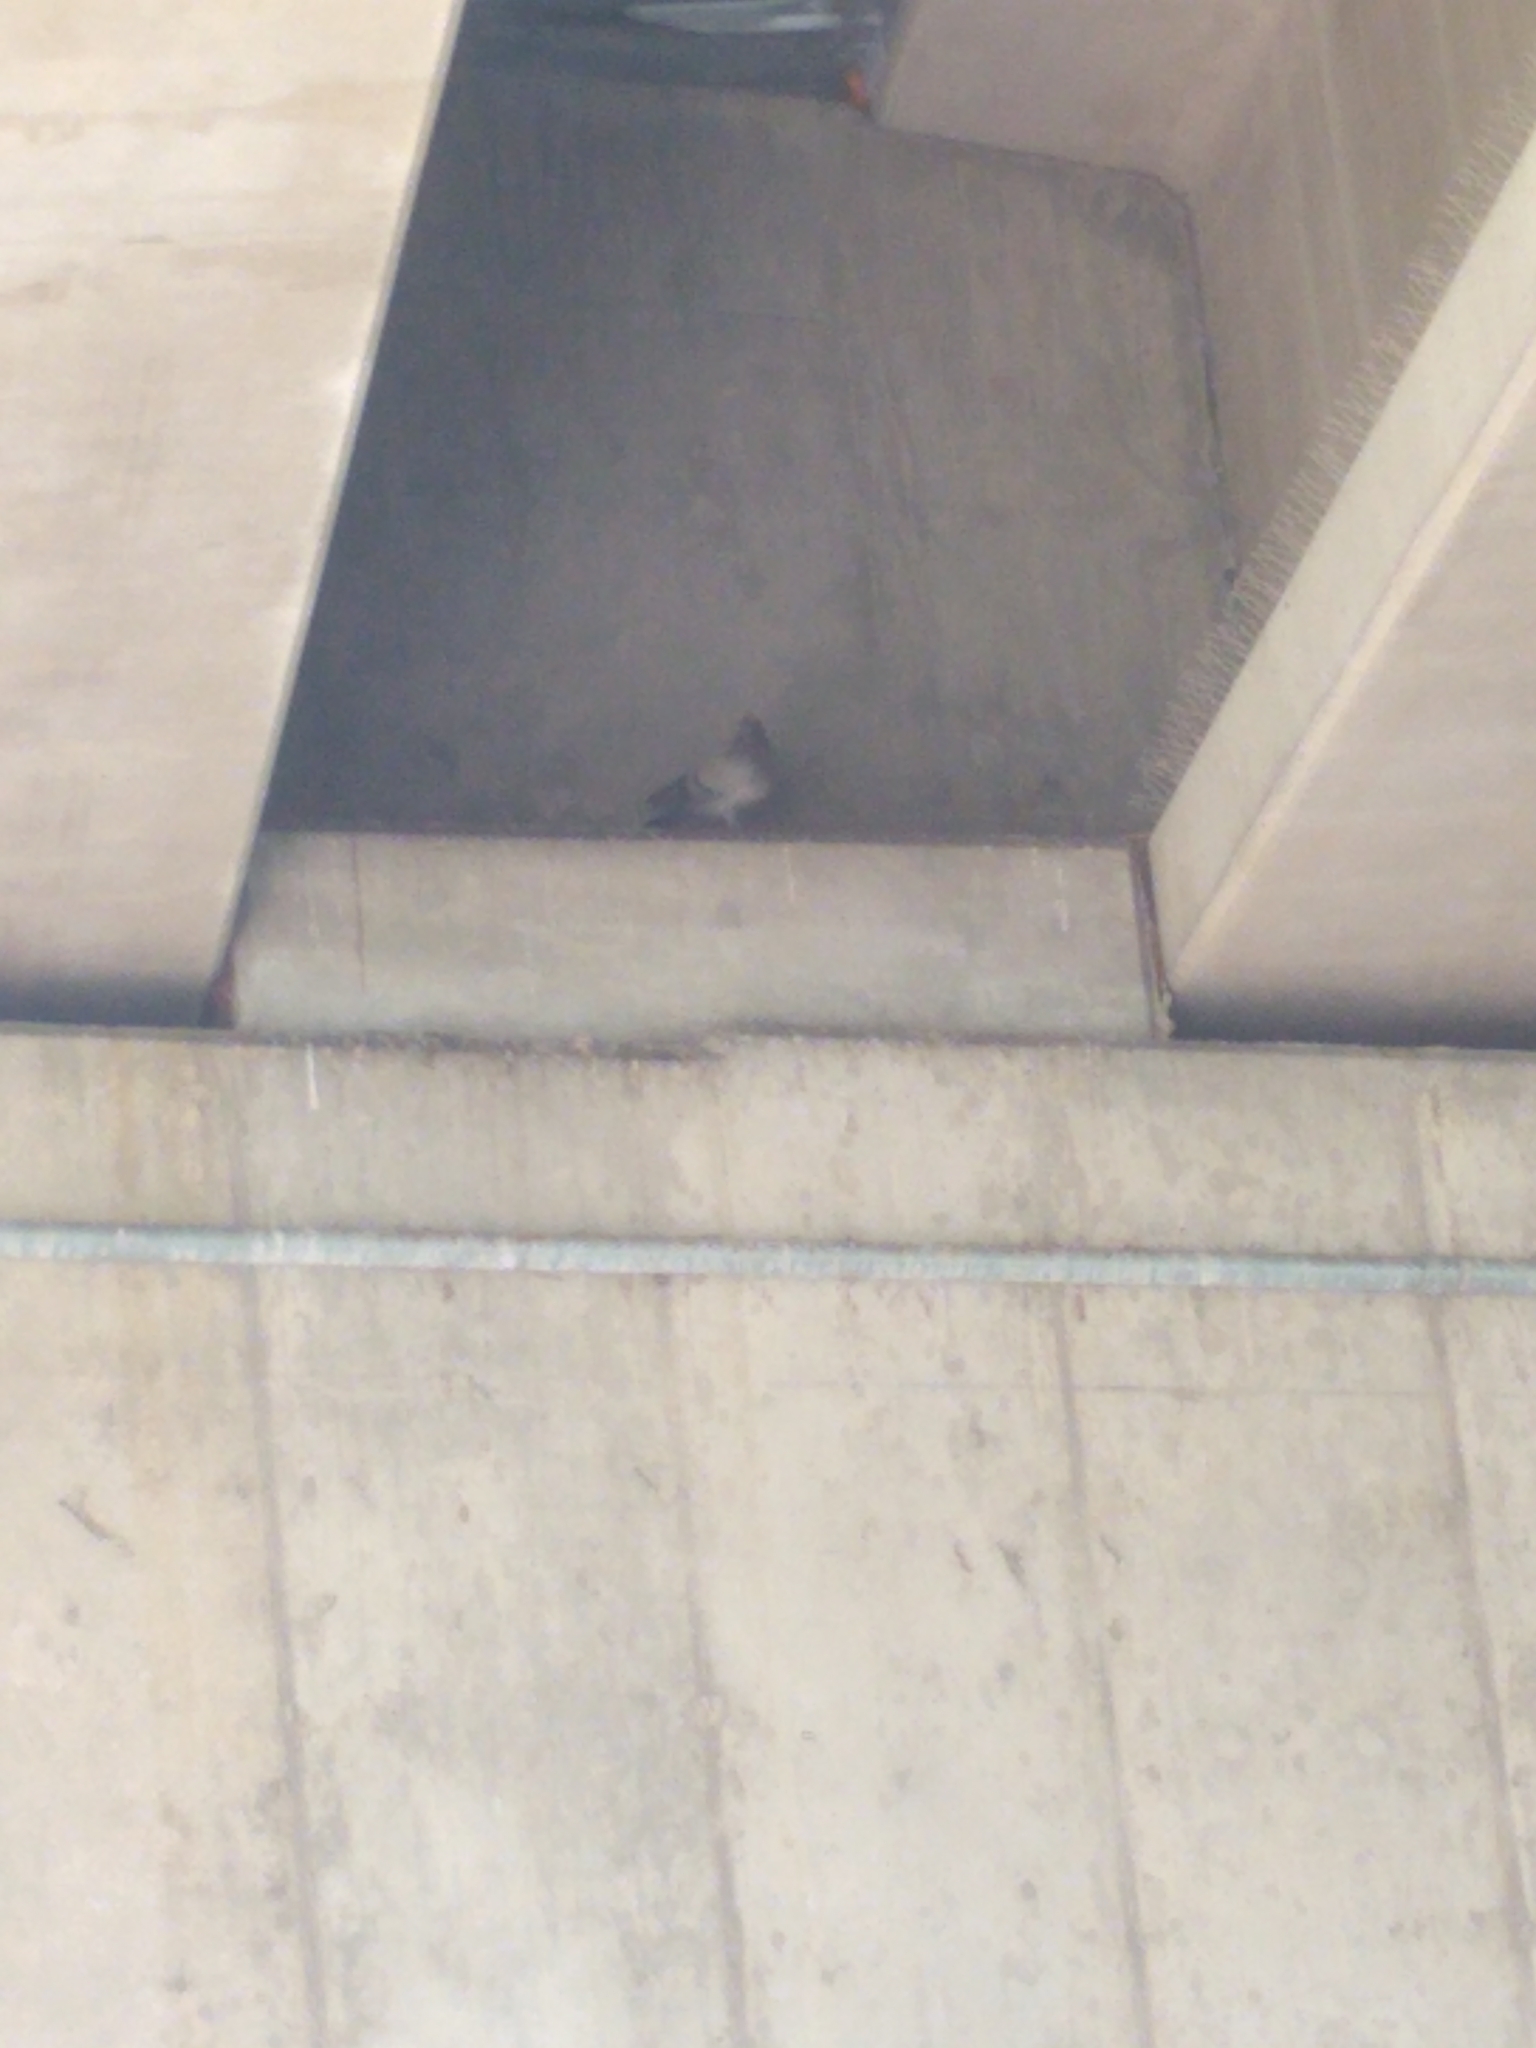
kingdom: Animalia
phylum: Chordata
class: Aves
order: Columbiformes
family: Columbidae
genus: Columba
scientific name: Columba livia
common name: Rock pigeon
